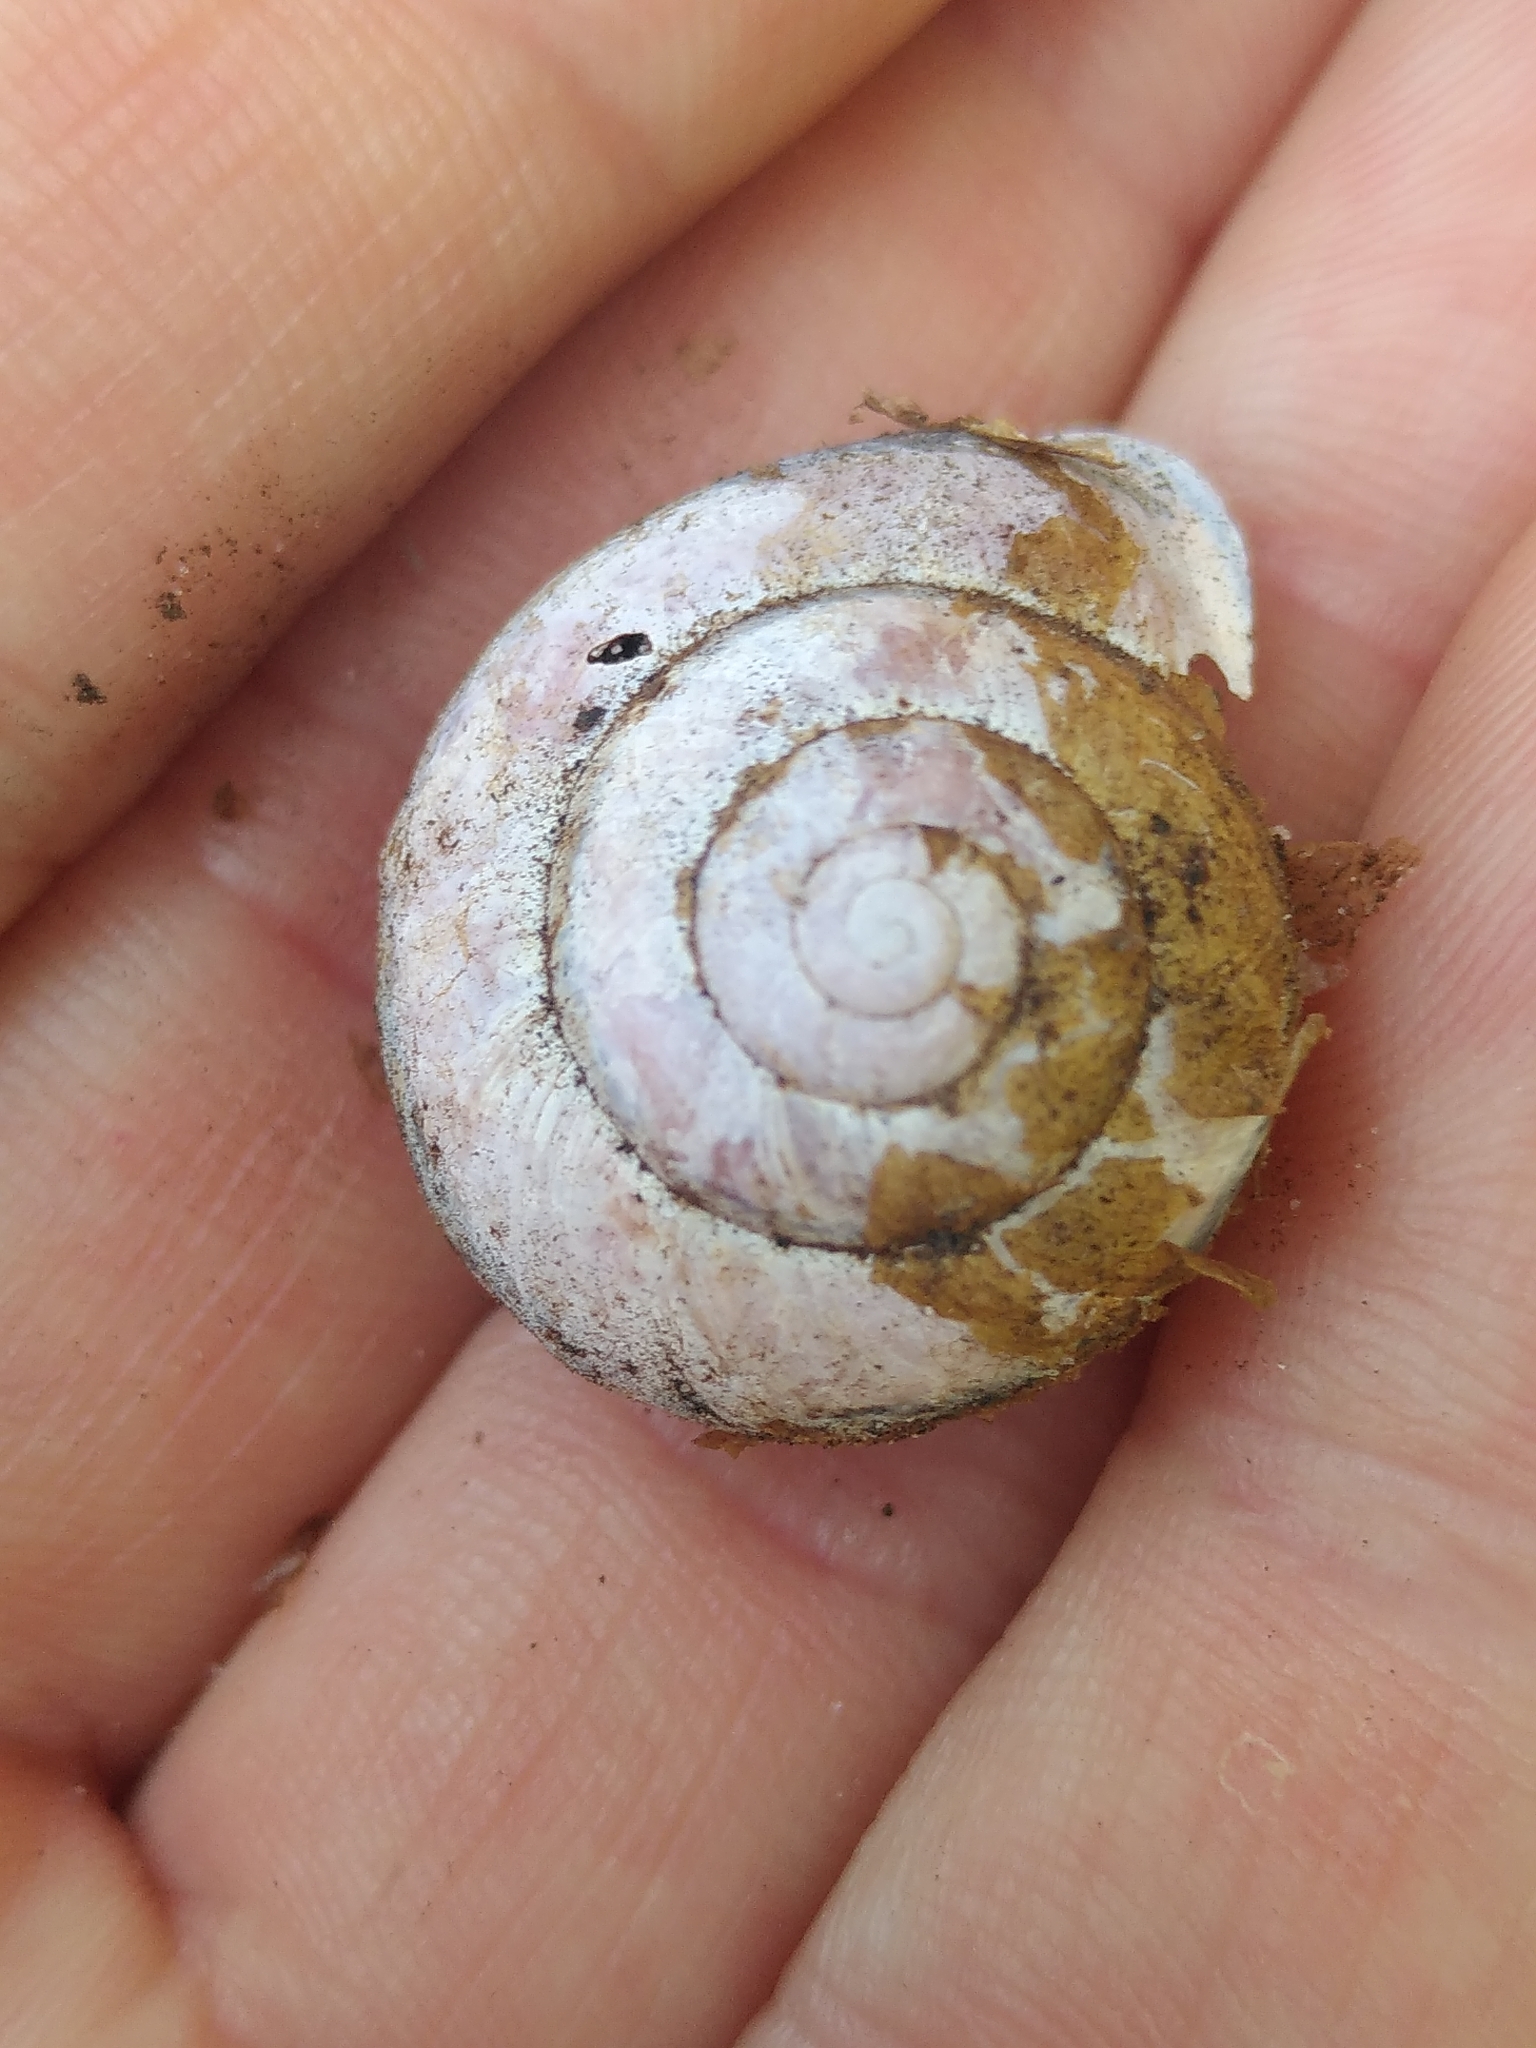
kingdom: Animalia
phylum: Mollusca
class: Gastropoda
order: Stylommatophora
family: Helicidae
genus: Cepaea
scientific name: Cepaea nemoralis
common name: Grovesnail
